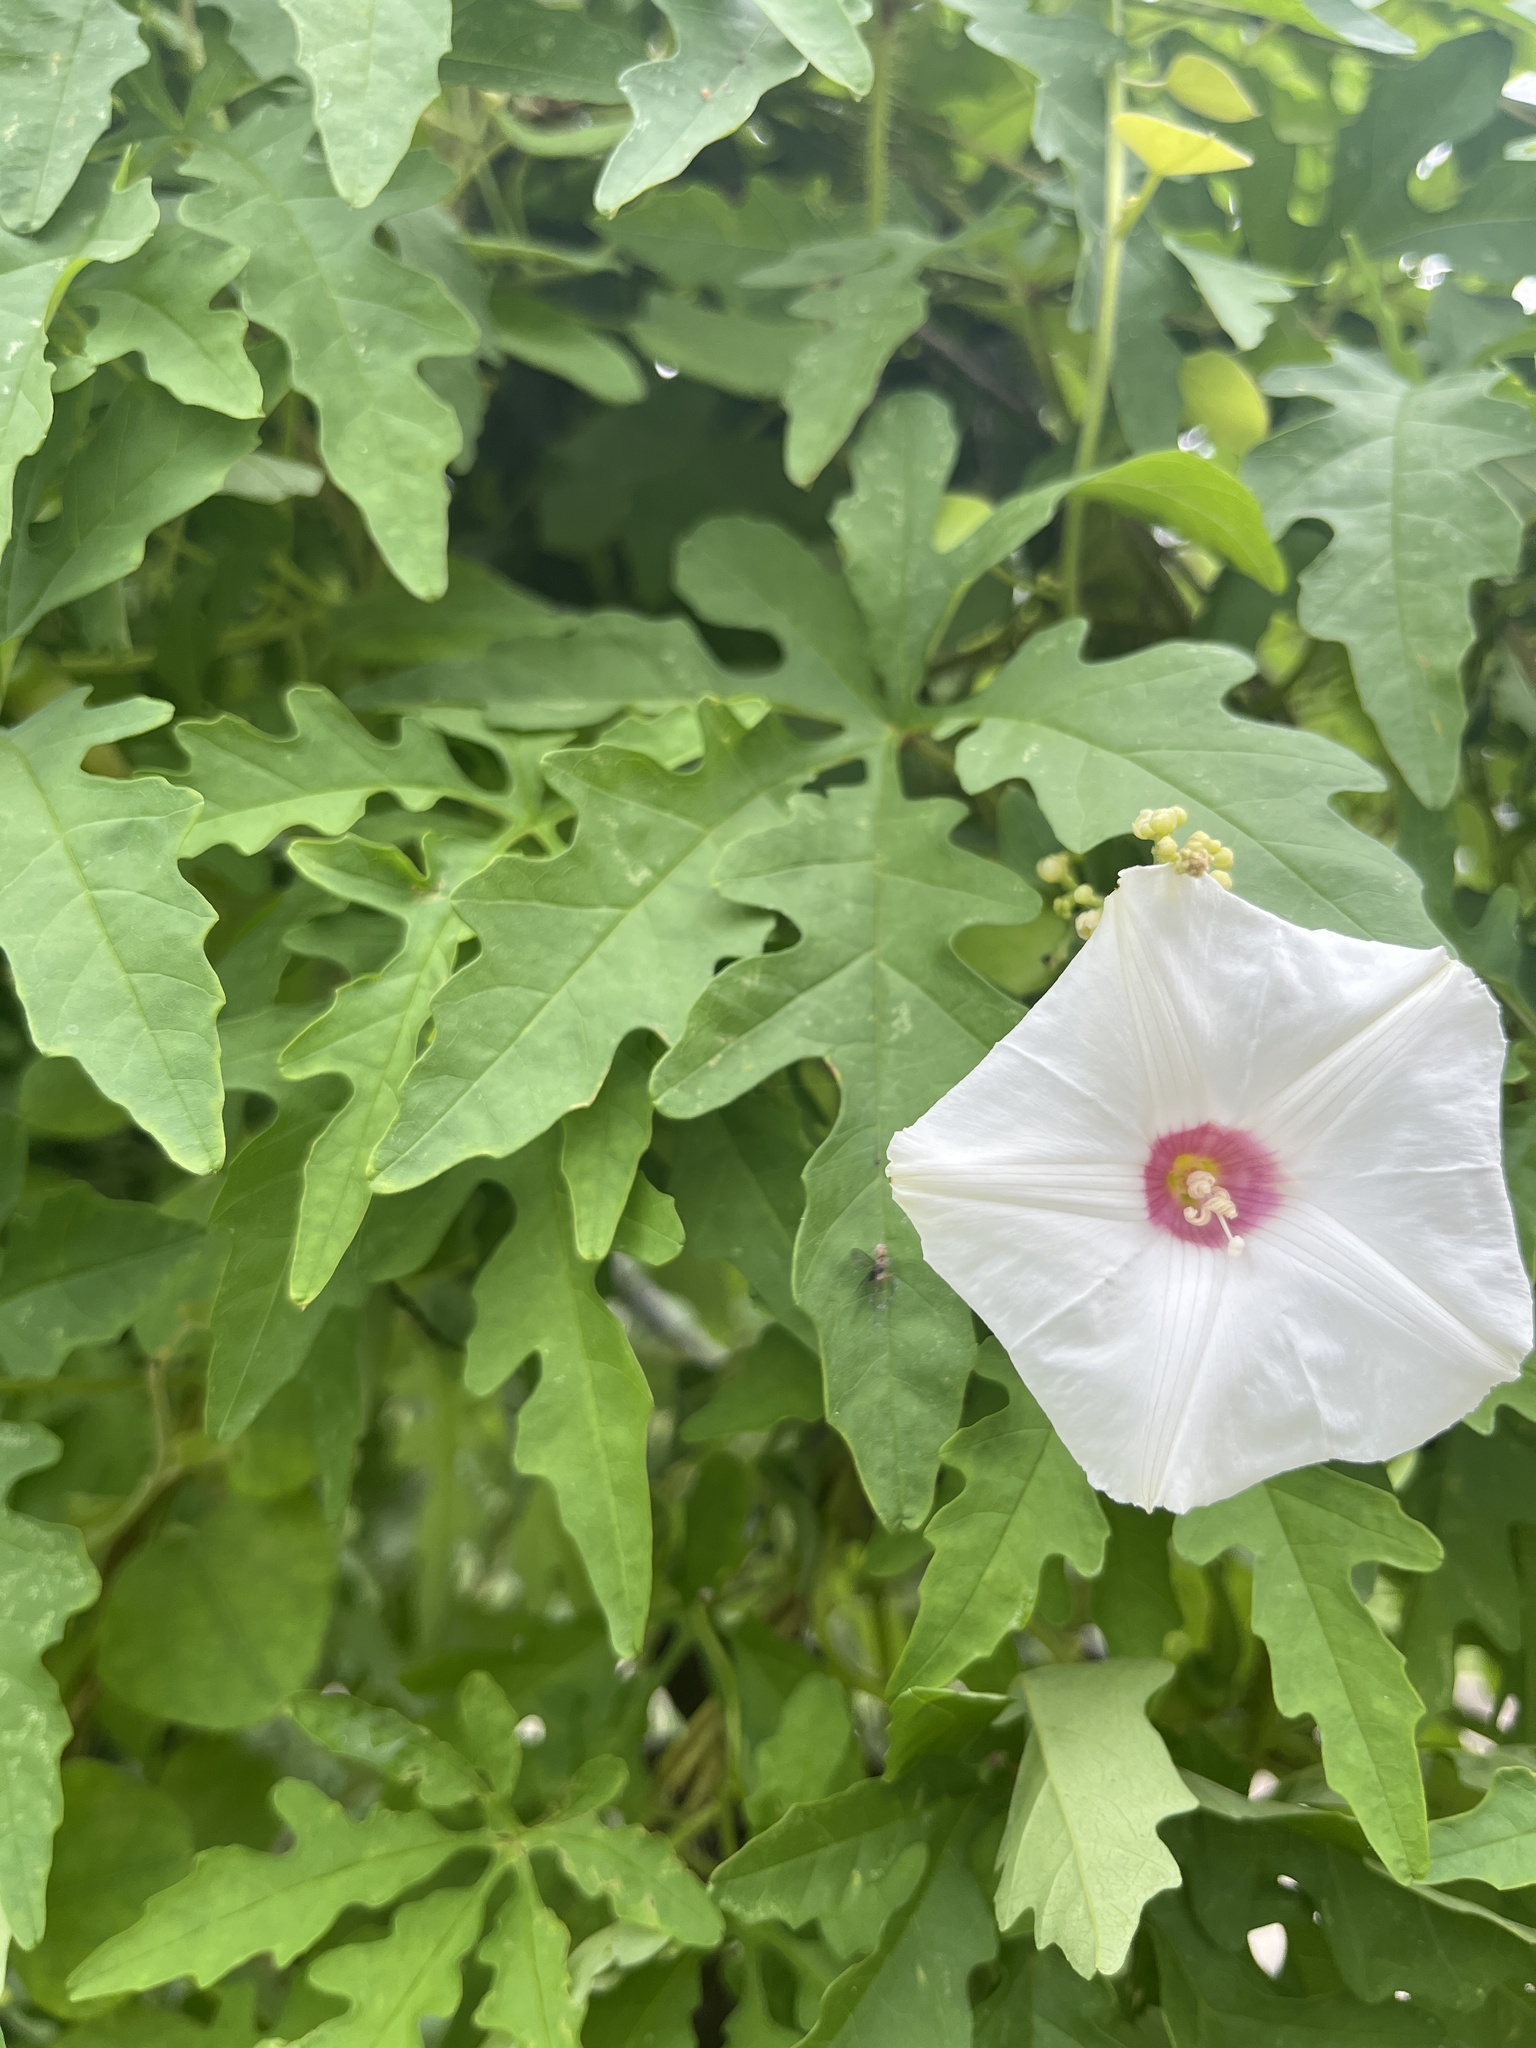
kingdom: Plantae
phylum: Tracheophyta
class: Magnoliopsida
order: Solanales
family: Convolvulaceae
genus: Distimake
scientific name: Distimake dissectus
